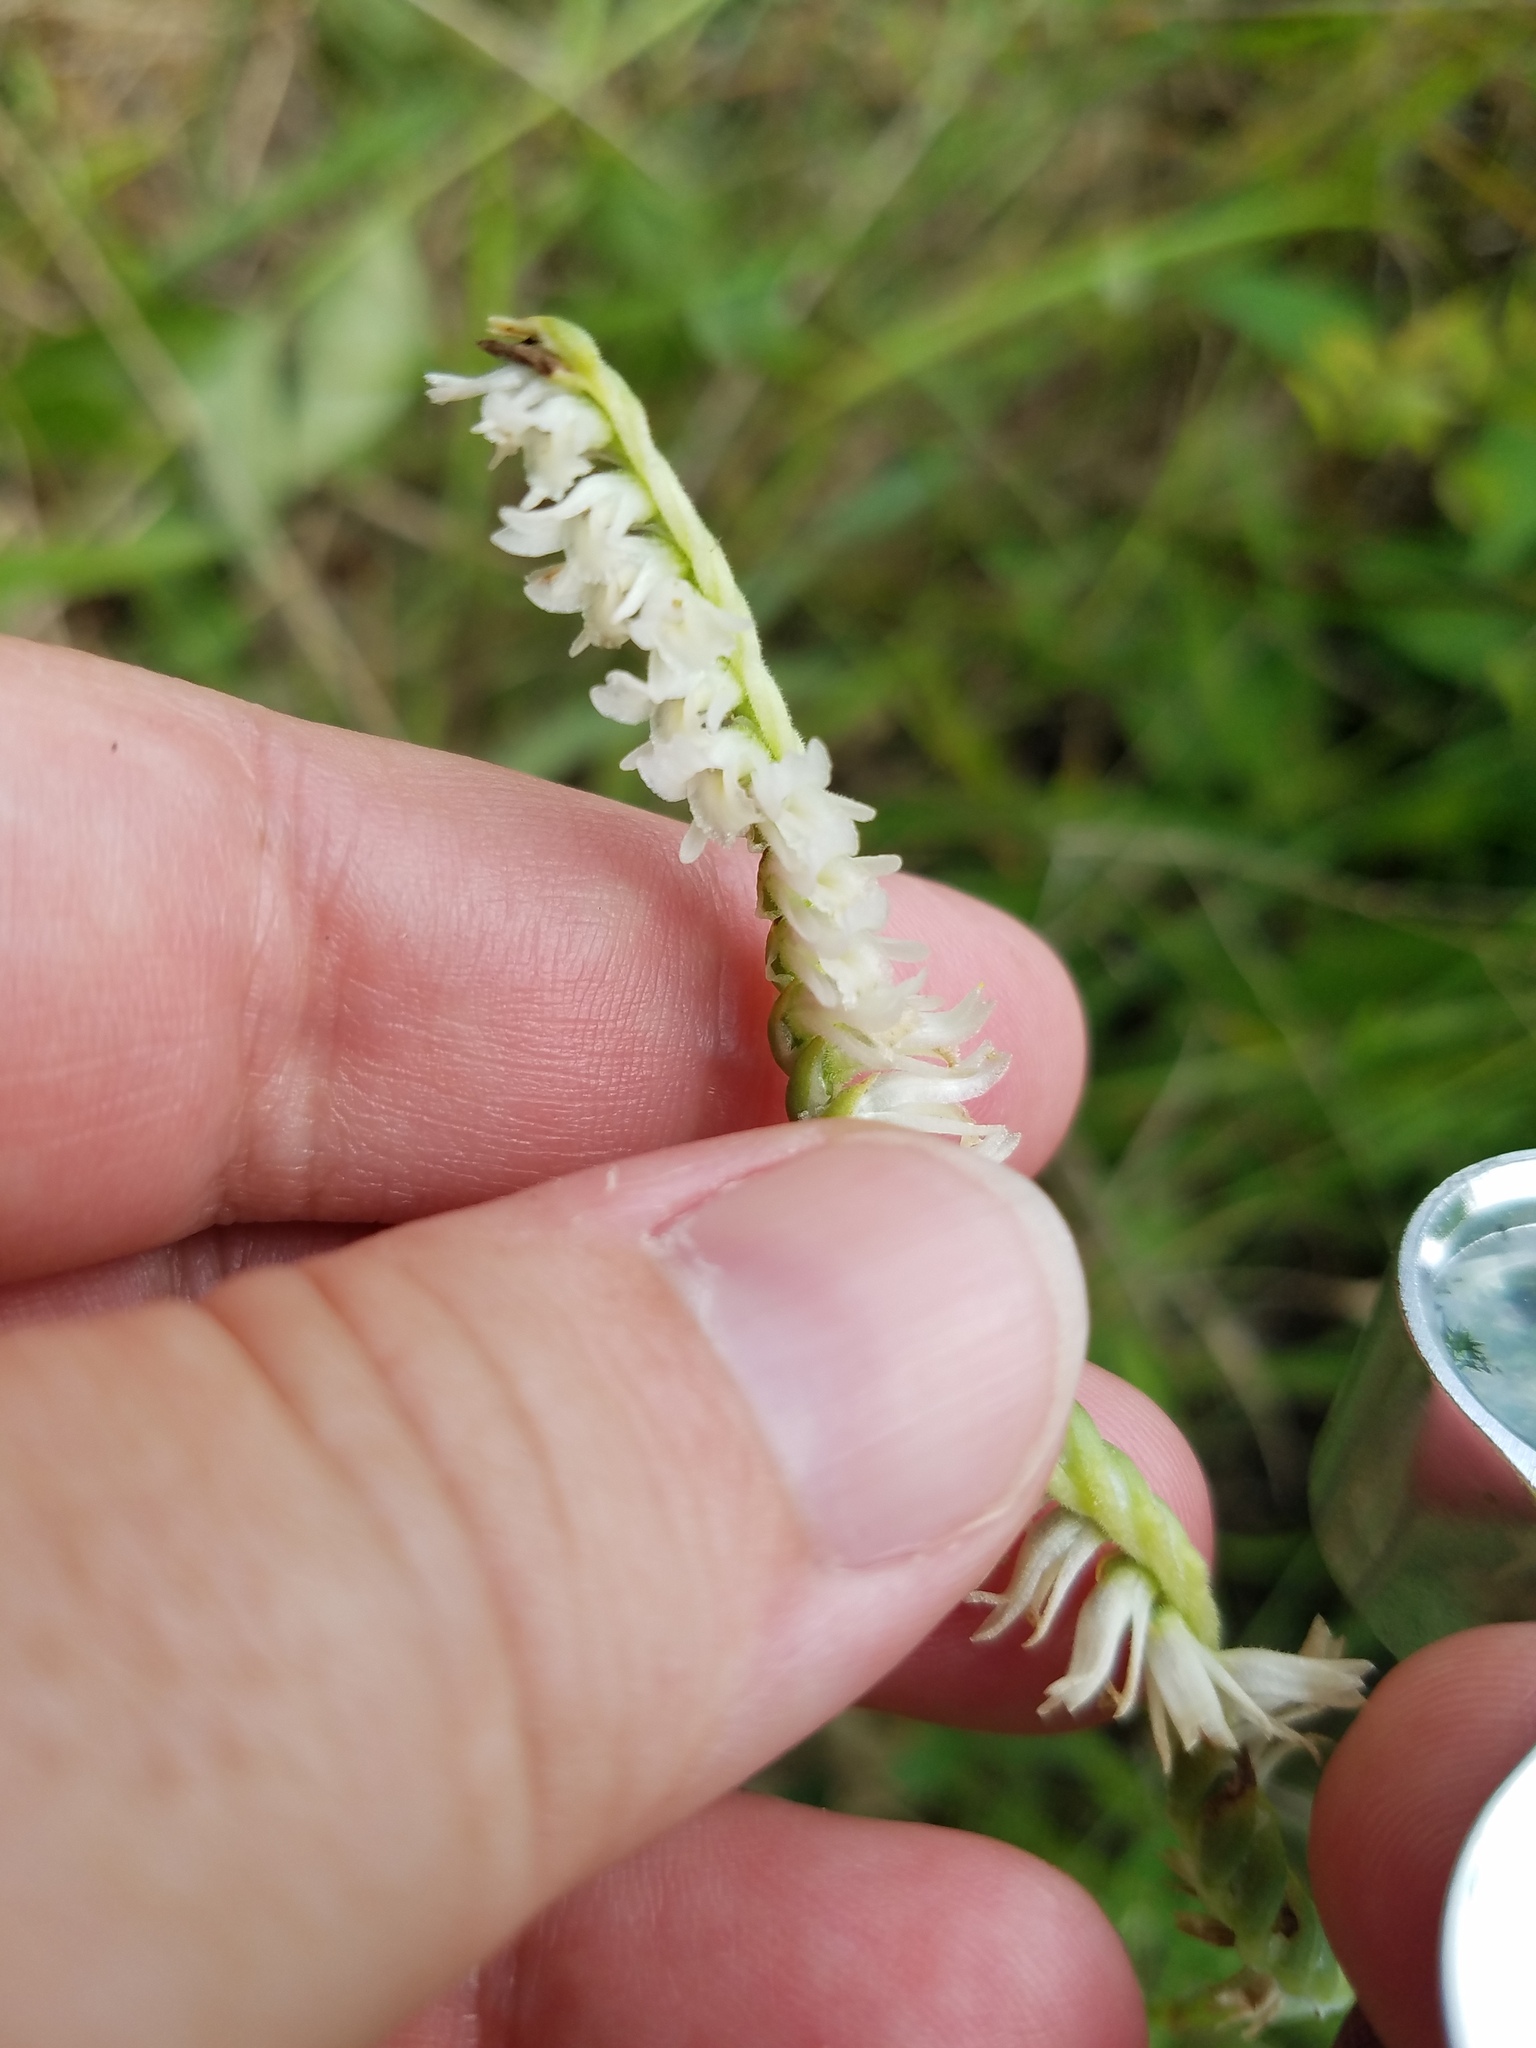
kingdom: Plantae
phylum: Tracheophyta
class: Liliopsida
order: Asparagales
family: Orchidaceae
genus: Spiranthes
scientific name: Spiranthes vernalis
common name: Spring ladies'-tresses
